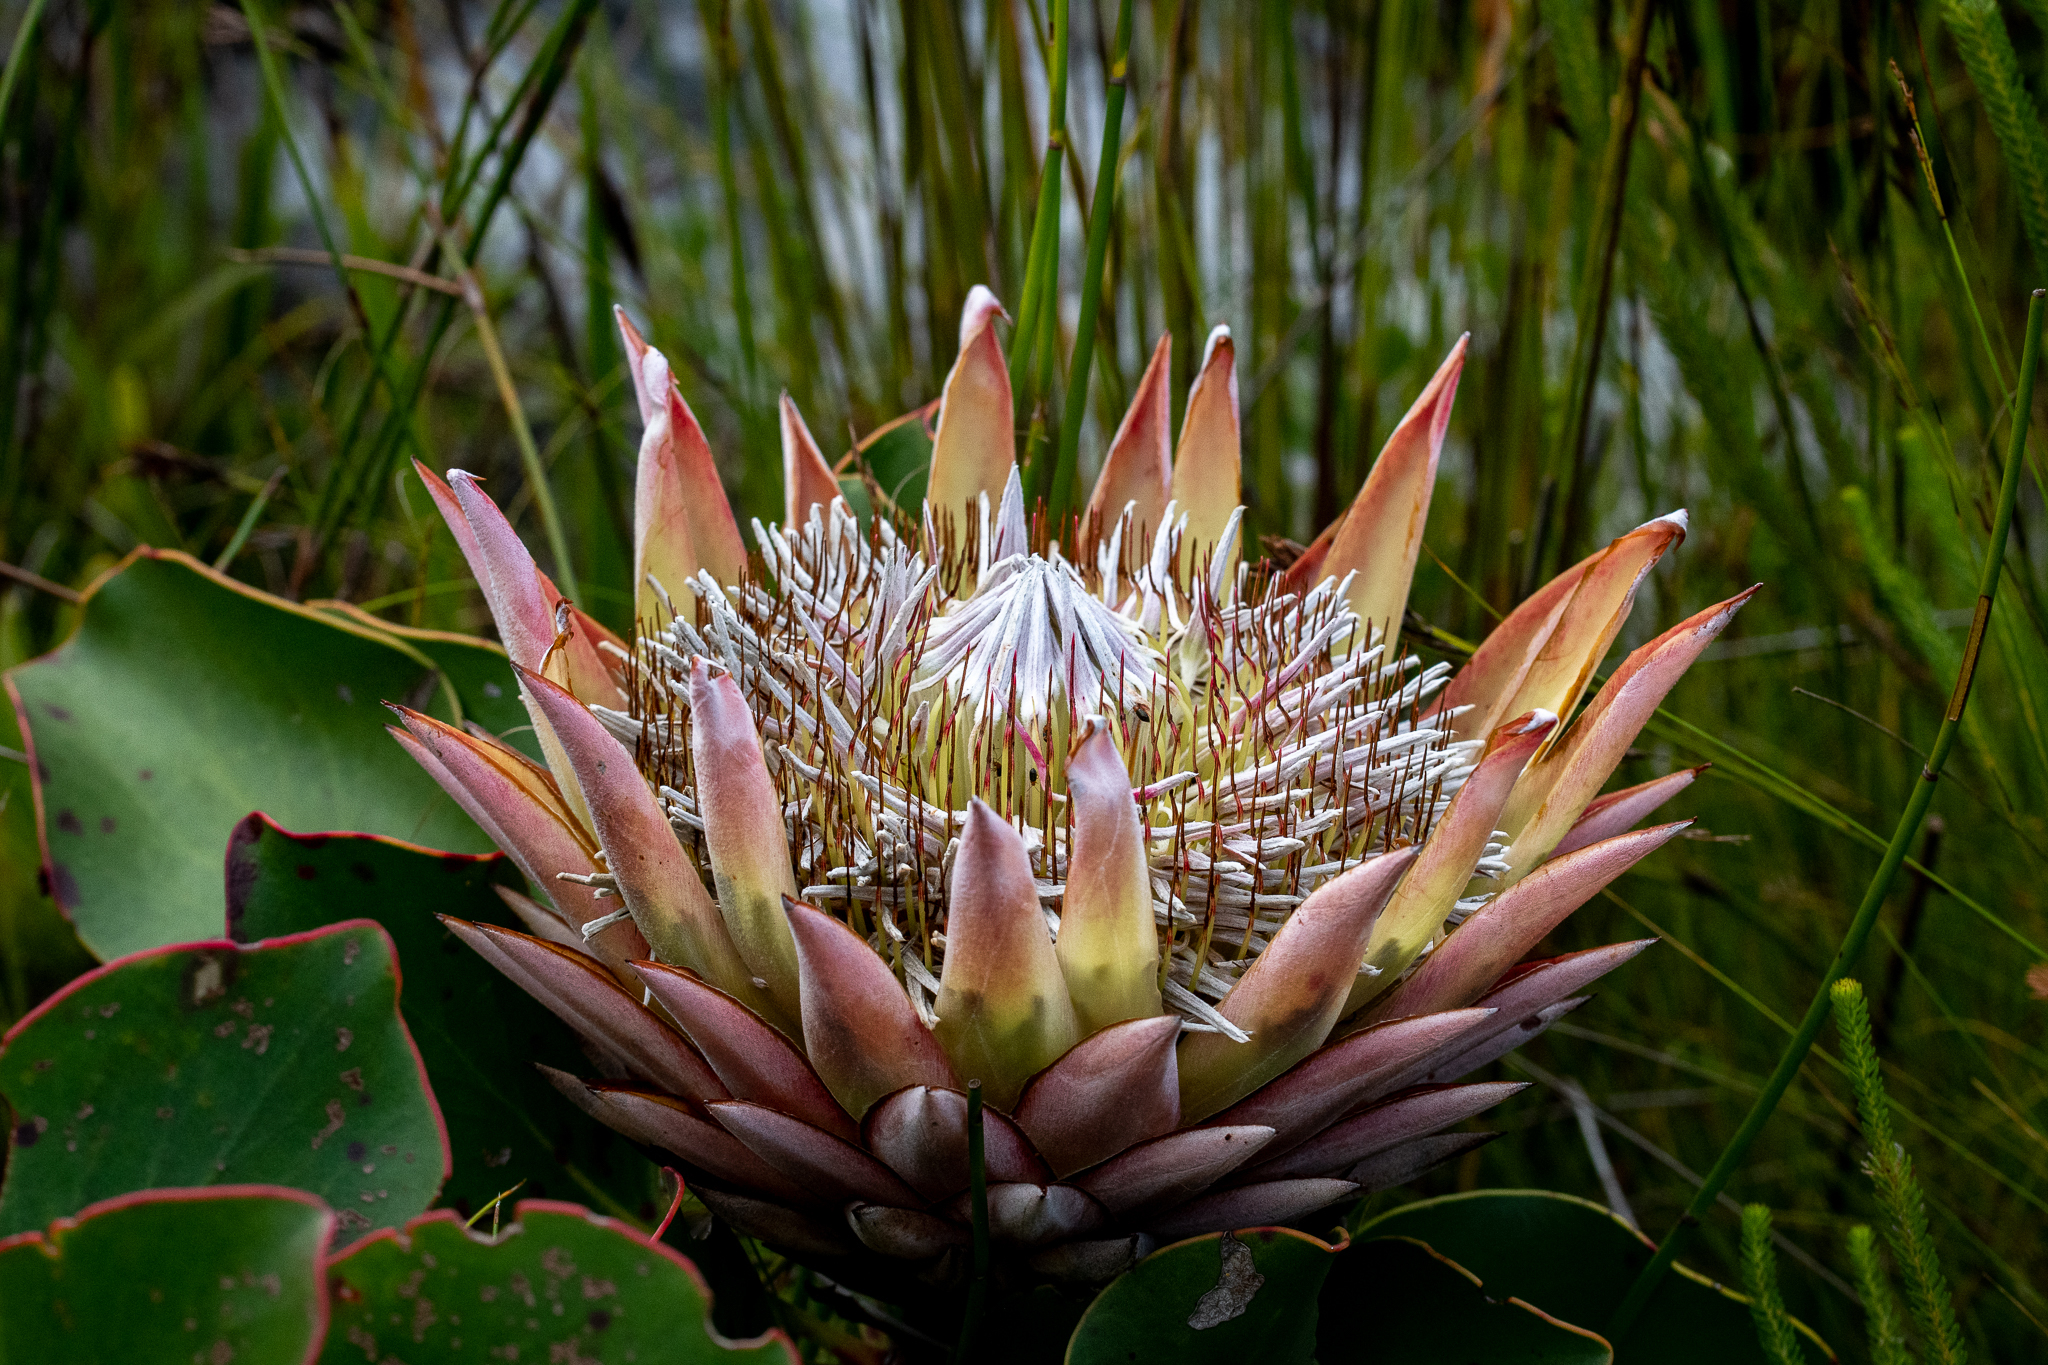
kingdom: Plantae
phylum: Tracheophyta
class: Magnoliopsida
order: Proteales
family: Proteaceae
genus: Protea
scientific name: Protea cynaroides
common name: King protea
